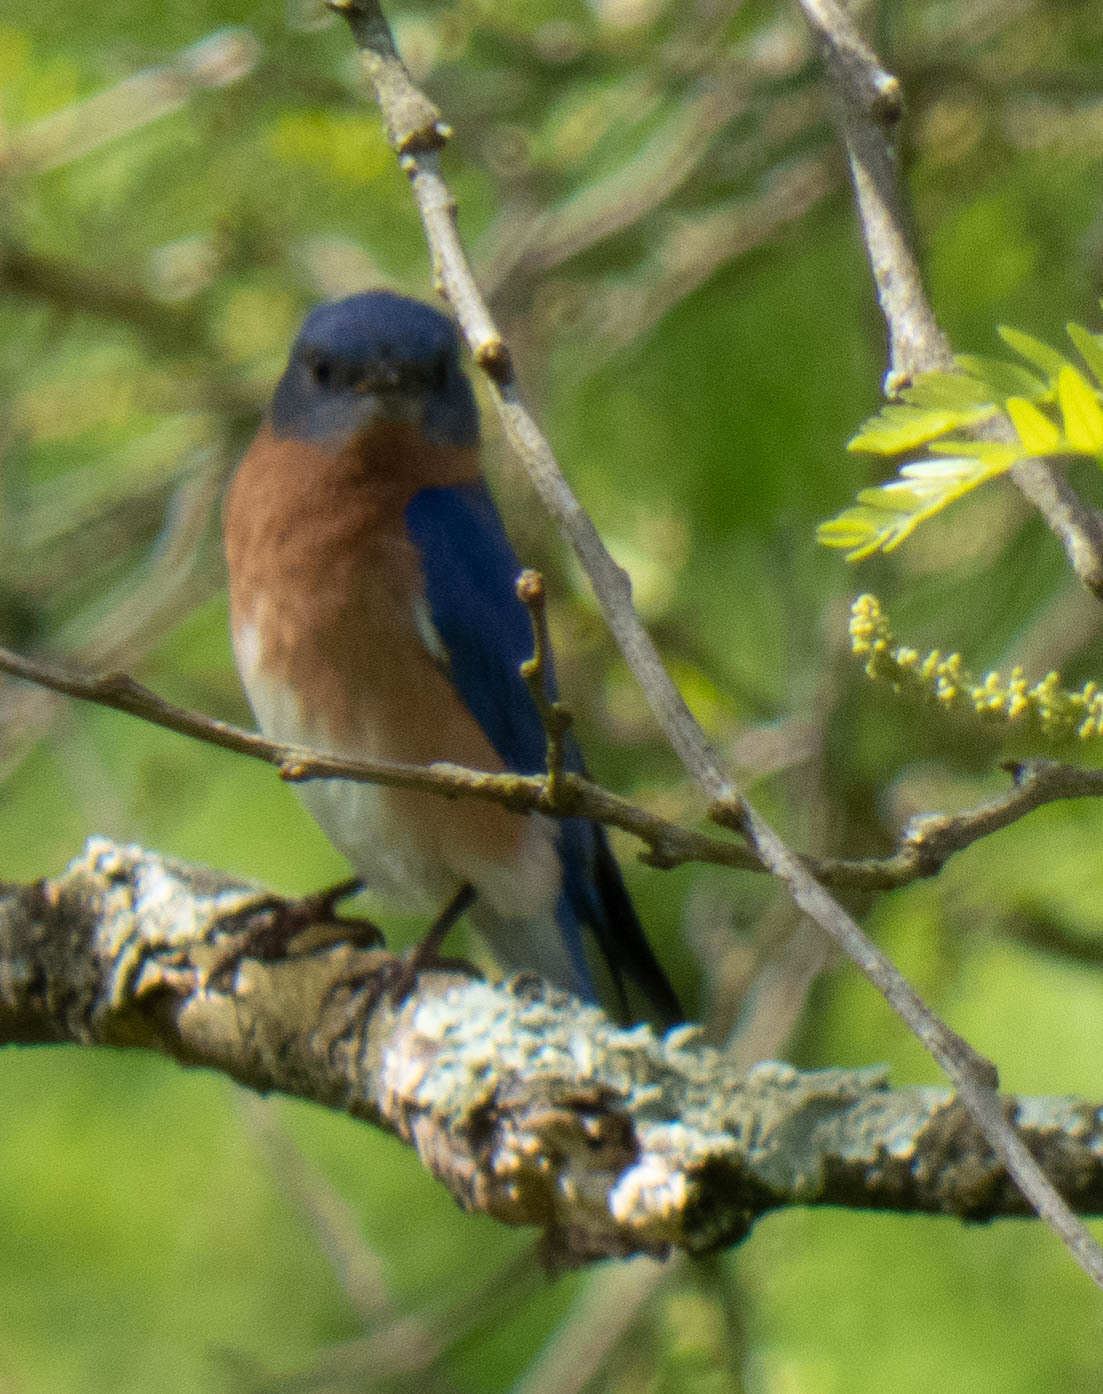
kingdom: Animalia
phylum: Chordata
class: Aves
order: Passeriformes
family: Turdidae
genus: Sialia
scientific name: Sialia sialis
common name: Eastern bluebird
